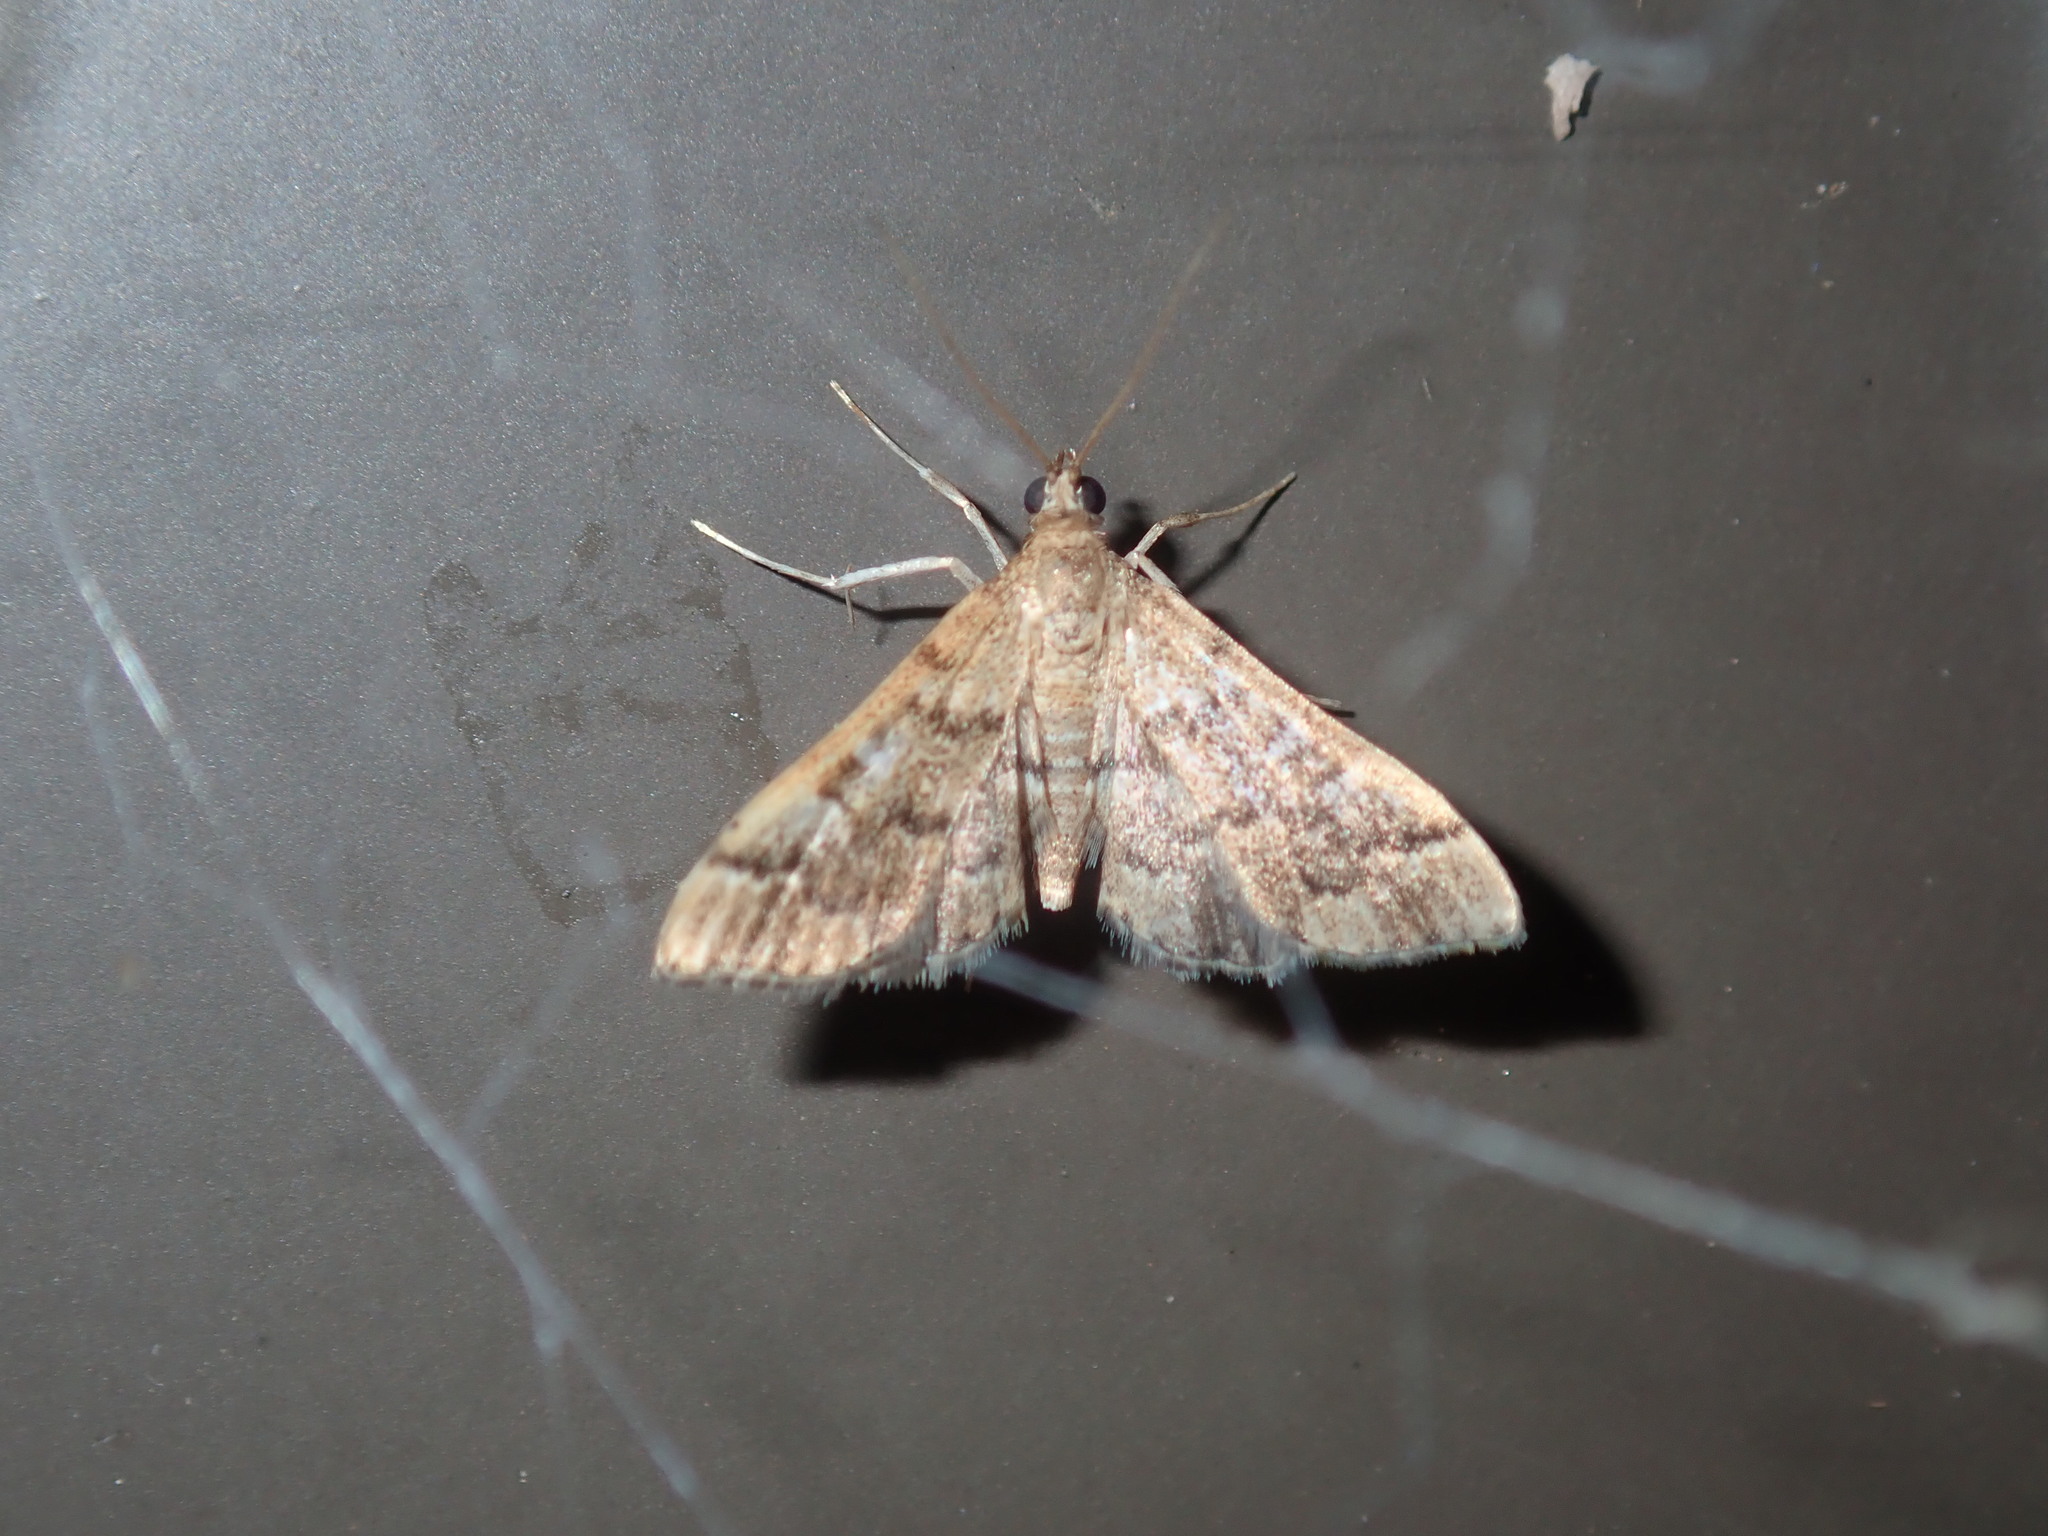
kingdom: Animalia
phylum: Arthropoda
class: Insecta
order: Lepidoptera
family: Crambidae
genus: Nacoleia
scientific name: Nacoleia rhoeoalis
